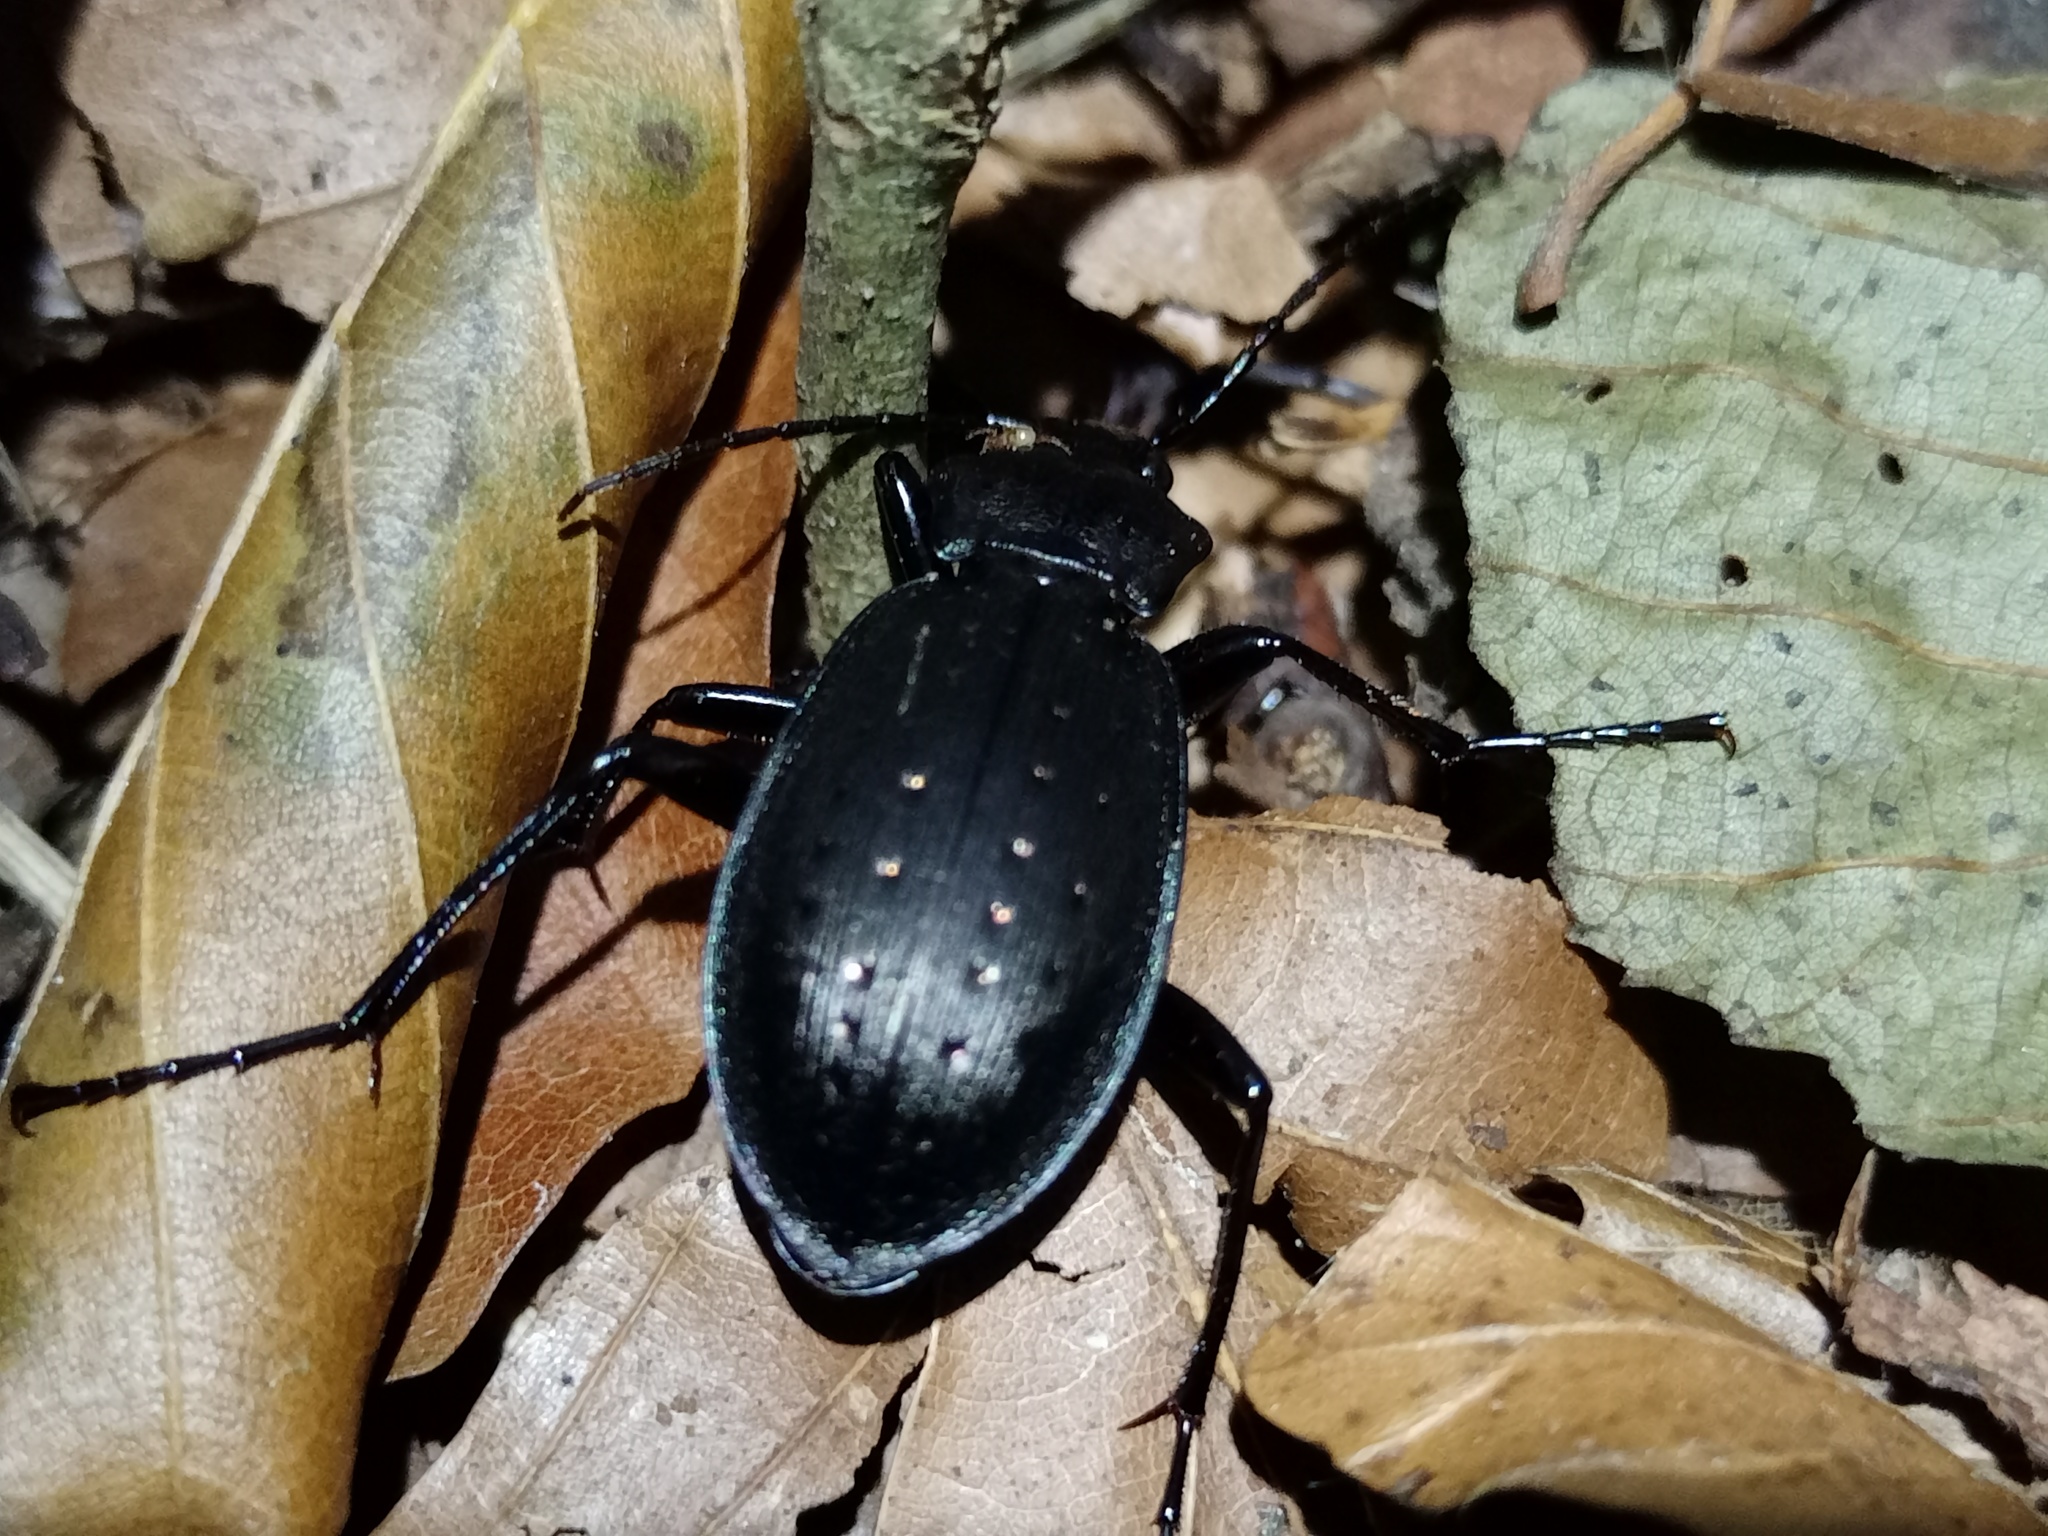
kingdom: Animalia
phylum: Arthropoda
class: Insecta
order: Coleoptera
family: Carabidae
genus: Carabus
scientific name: Carabus hortensis
